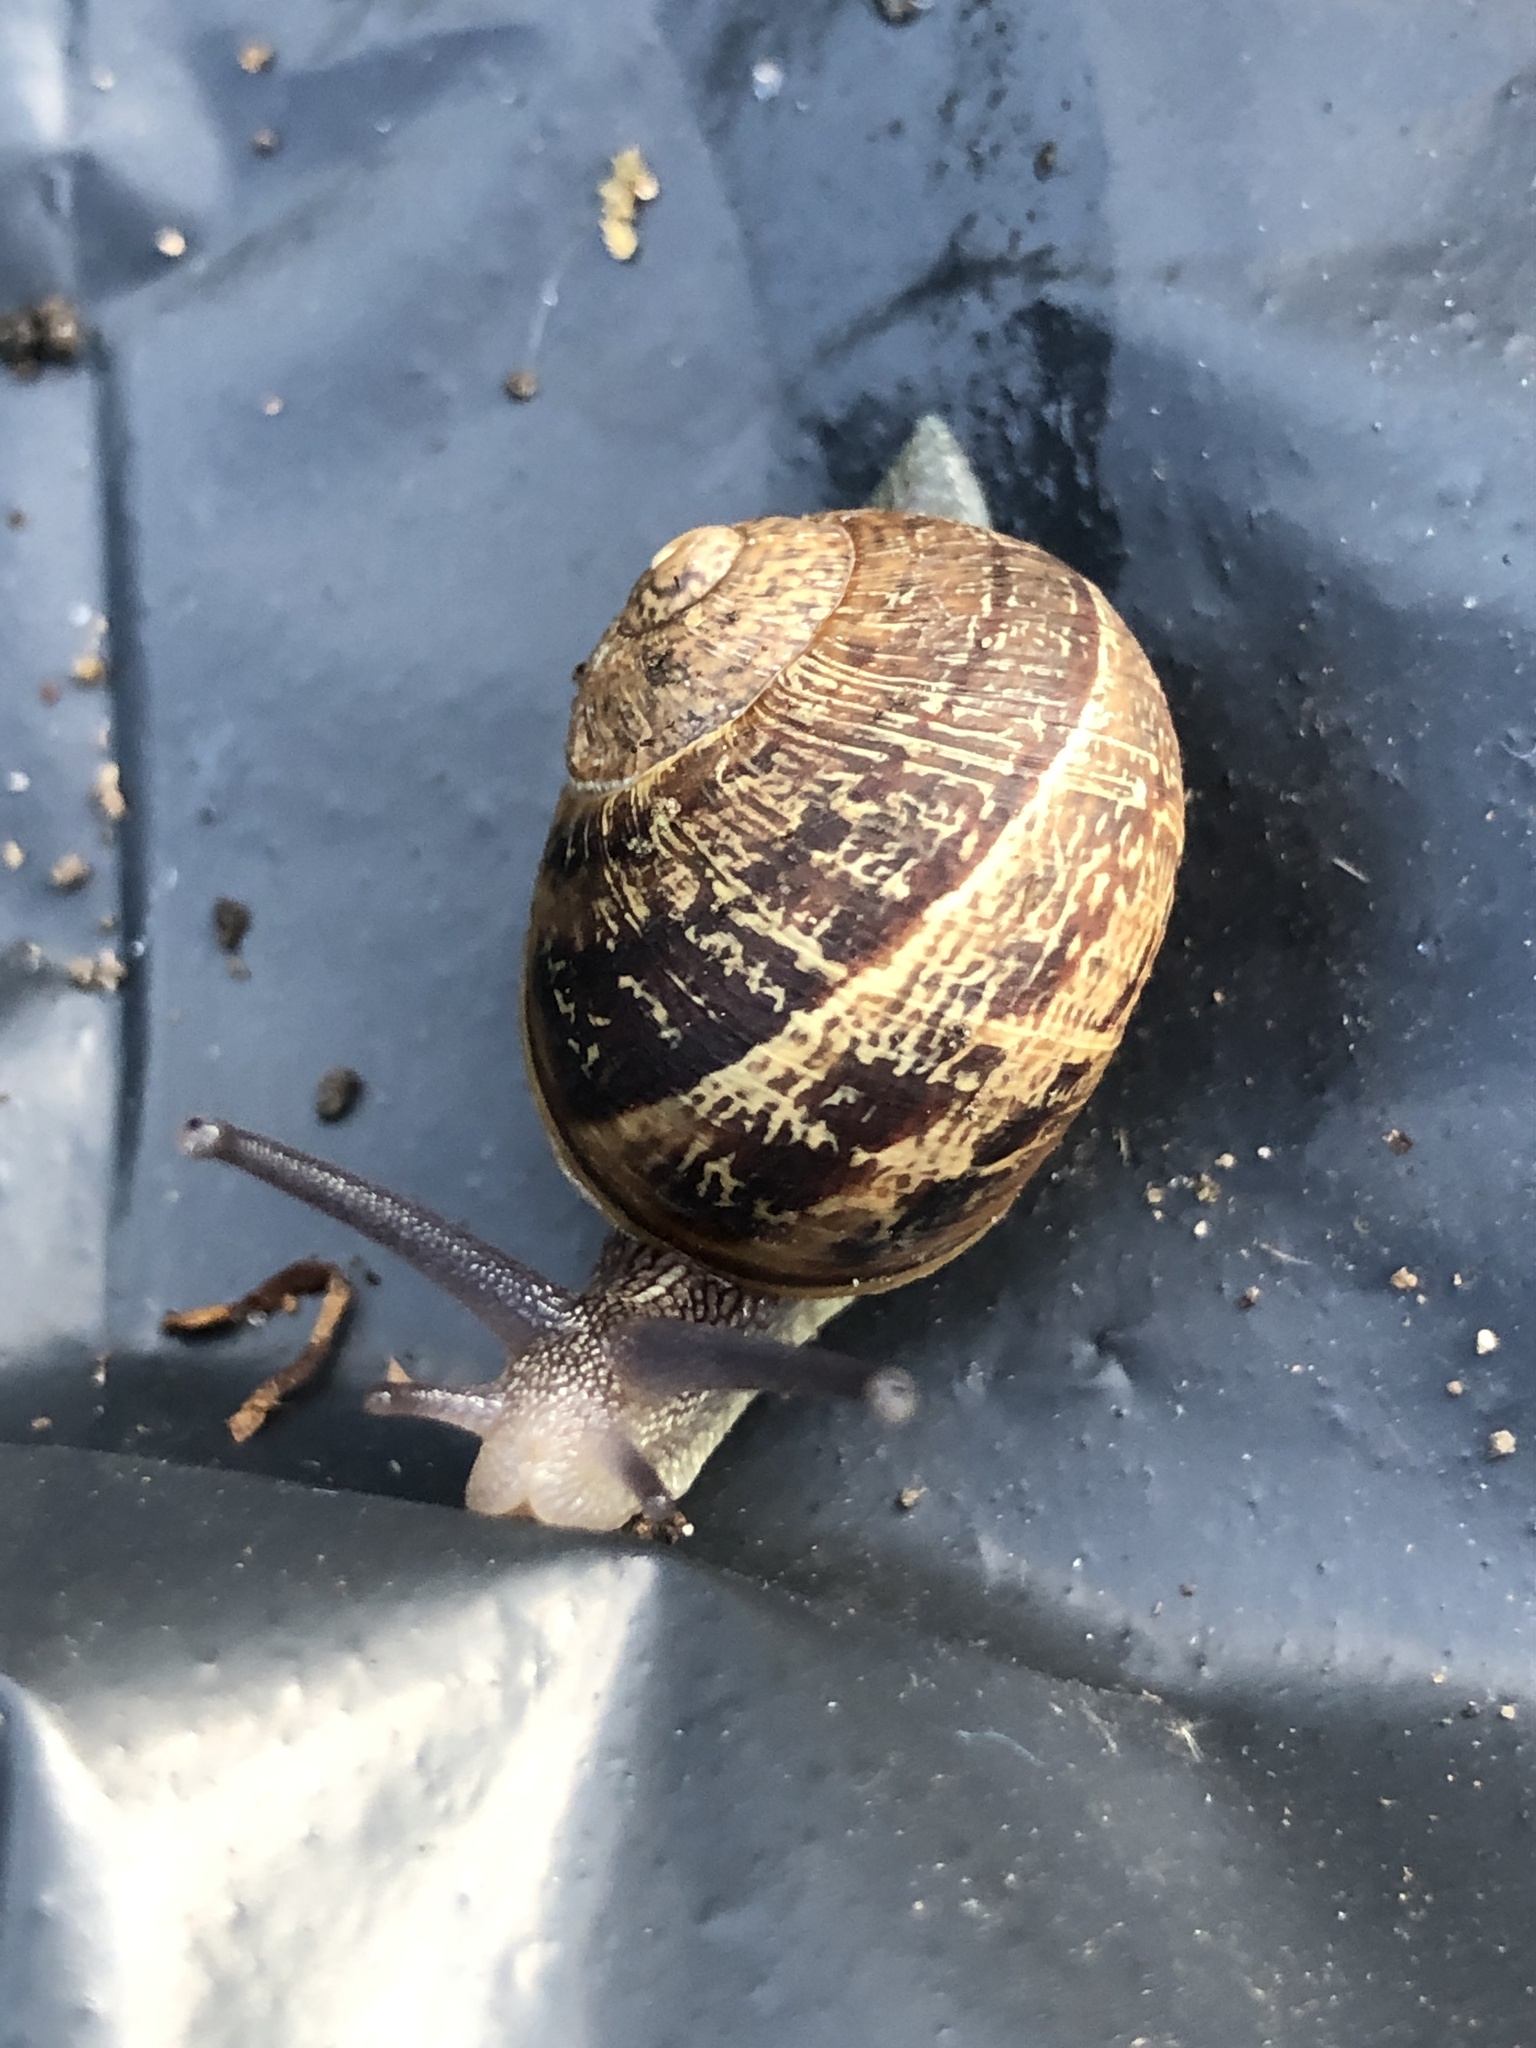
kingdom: Animalia
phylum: Mollusca
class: Gastropoda
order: Stylommatophora
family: Helicidae
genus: Cornu
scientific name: Cornu aspersum
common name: Brown garden snail
